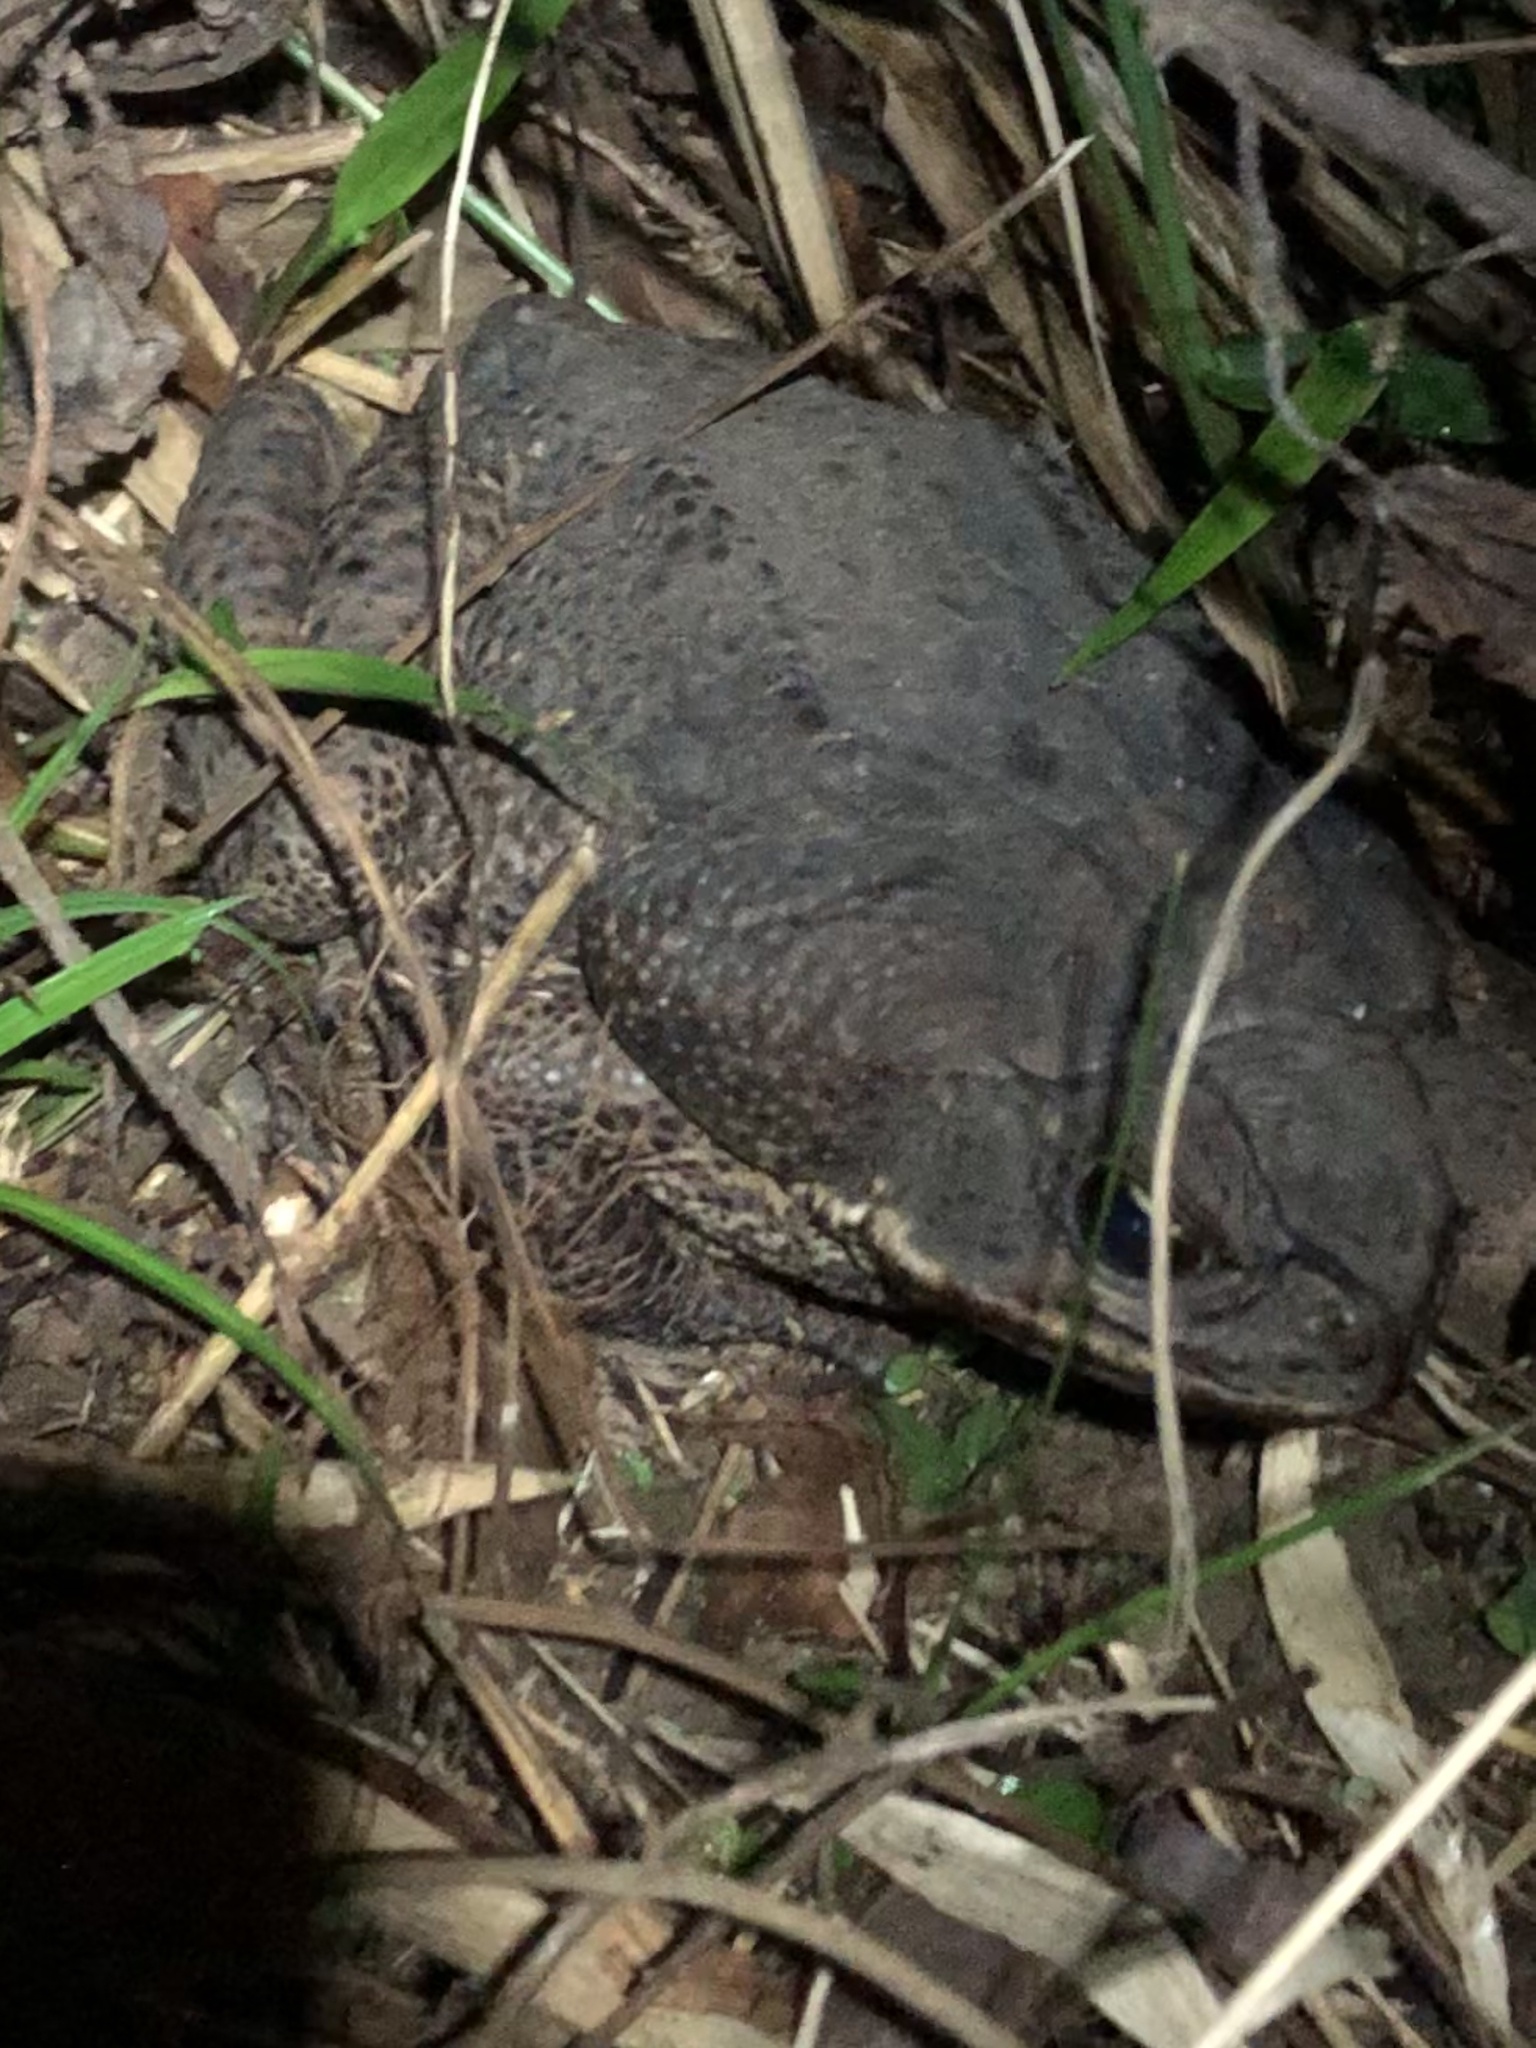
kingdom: Animalia
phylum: Chordata
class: Amphibia
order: Anura
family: Bufonidae
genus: Rhinella
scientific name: Rhinella marina
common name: Cane toad
